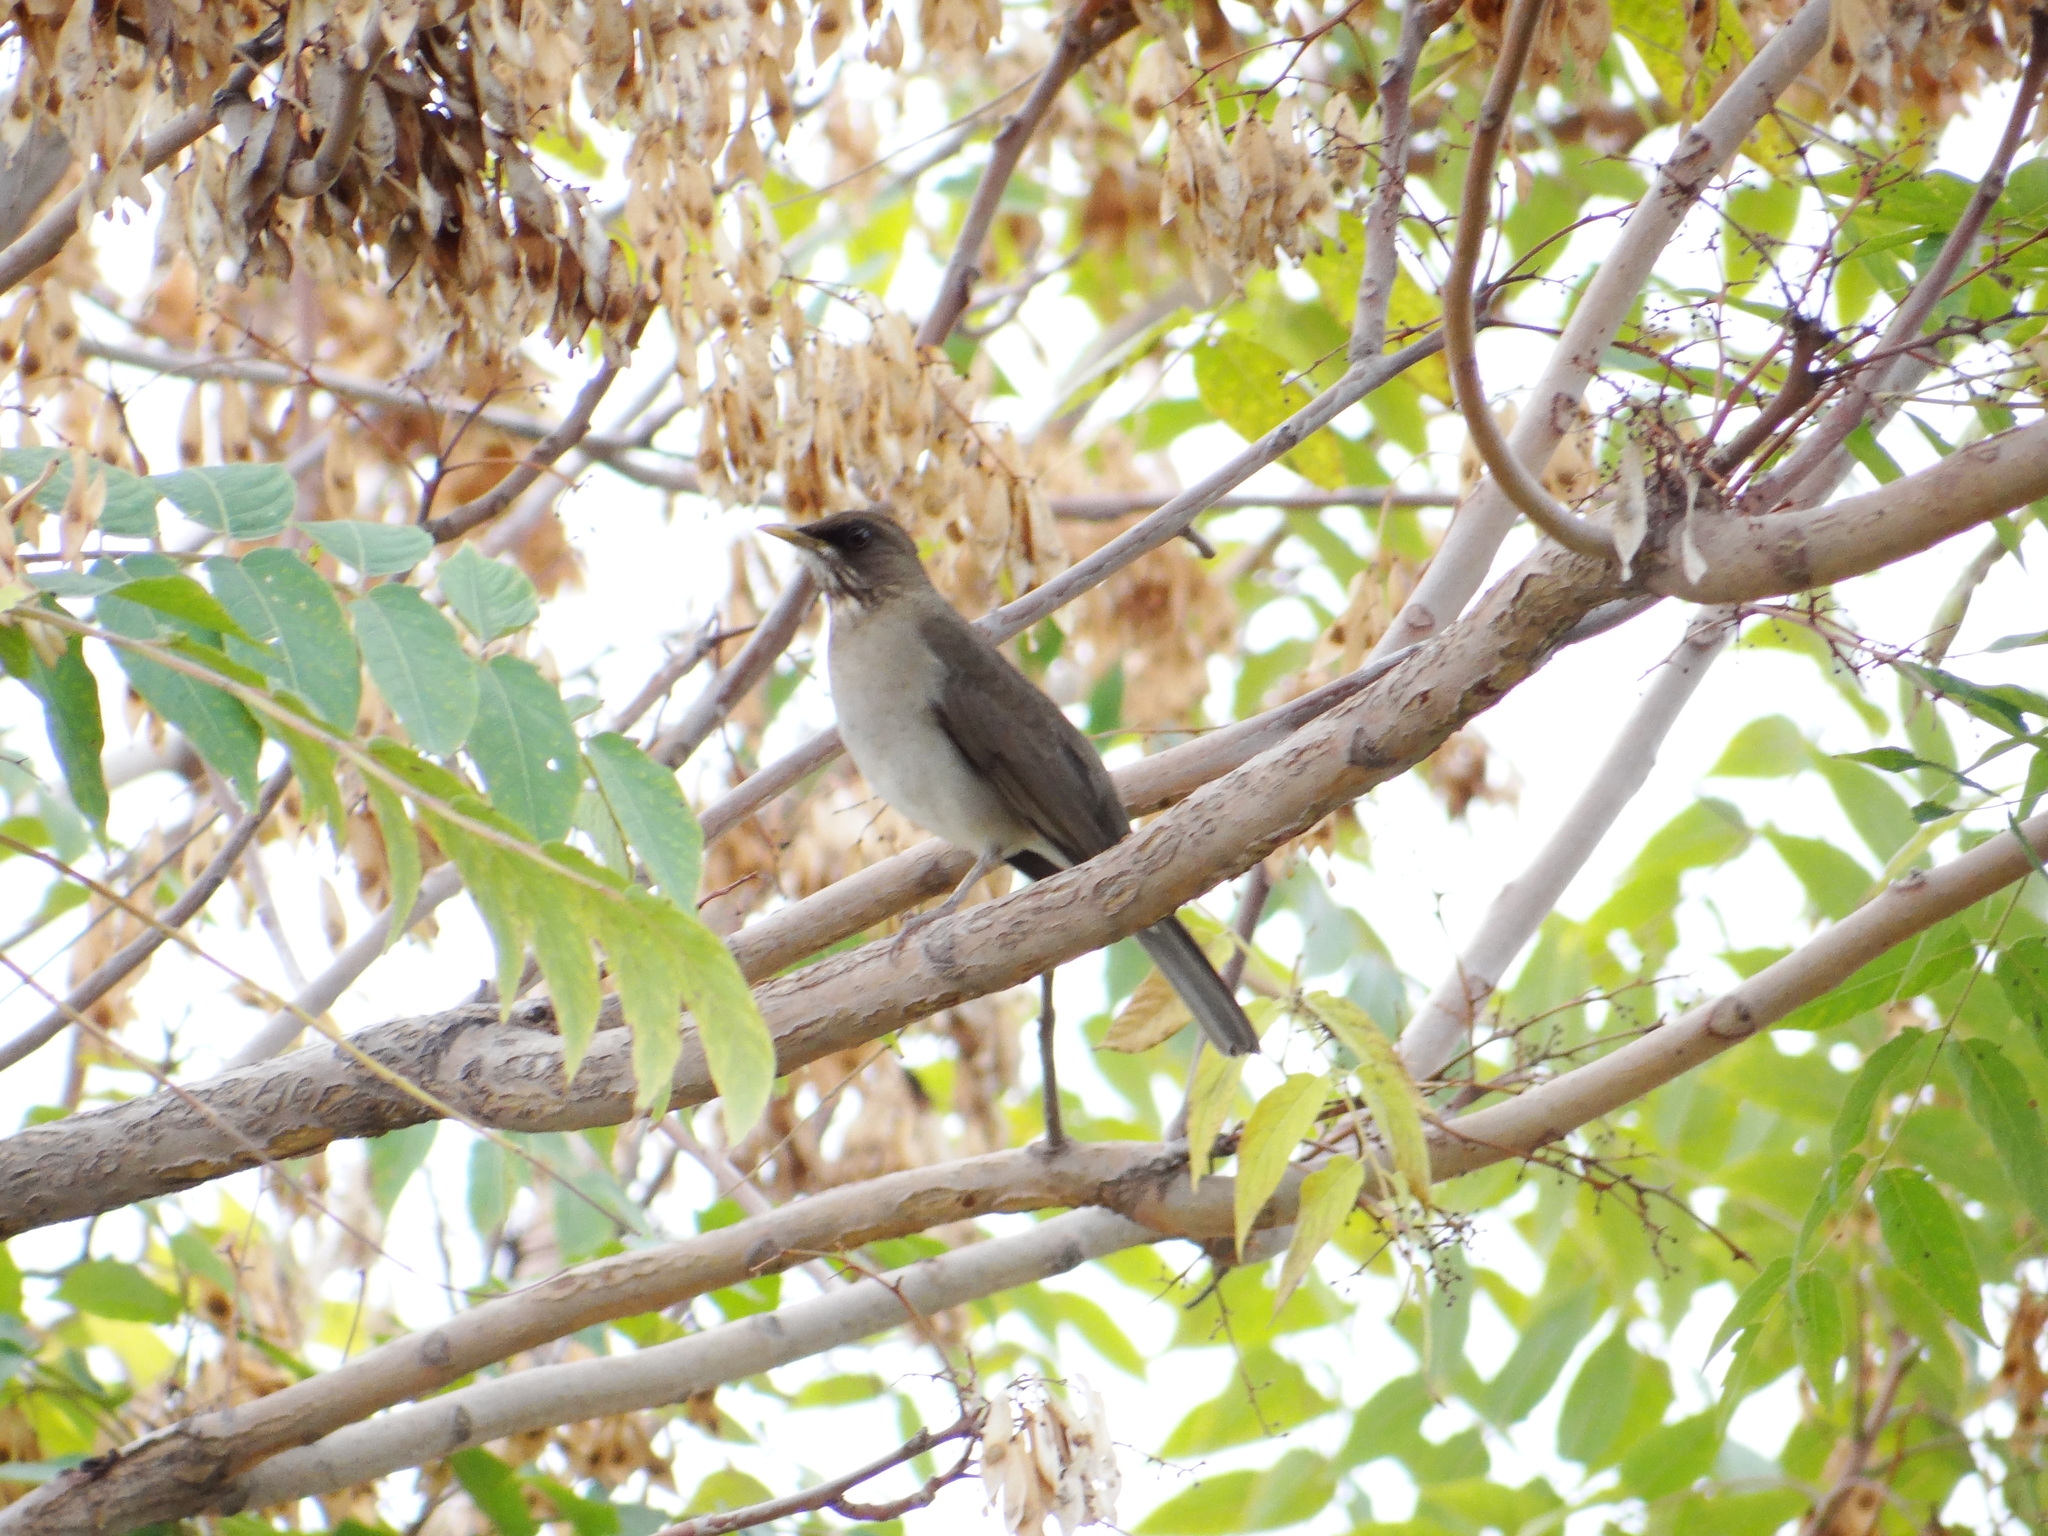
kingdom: Animalia
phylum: Chordata
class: Aves
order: Passeriformes
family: Turdidae
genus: Turdus
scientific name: Turdus amaurochalinus
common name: Creamy-bellied thrush
